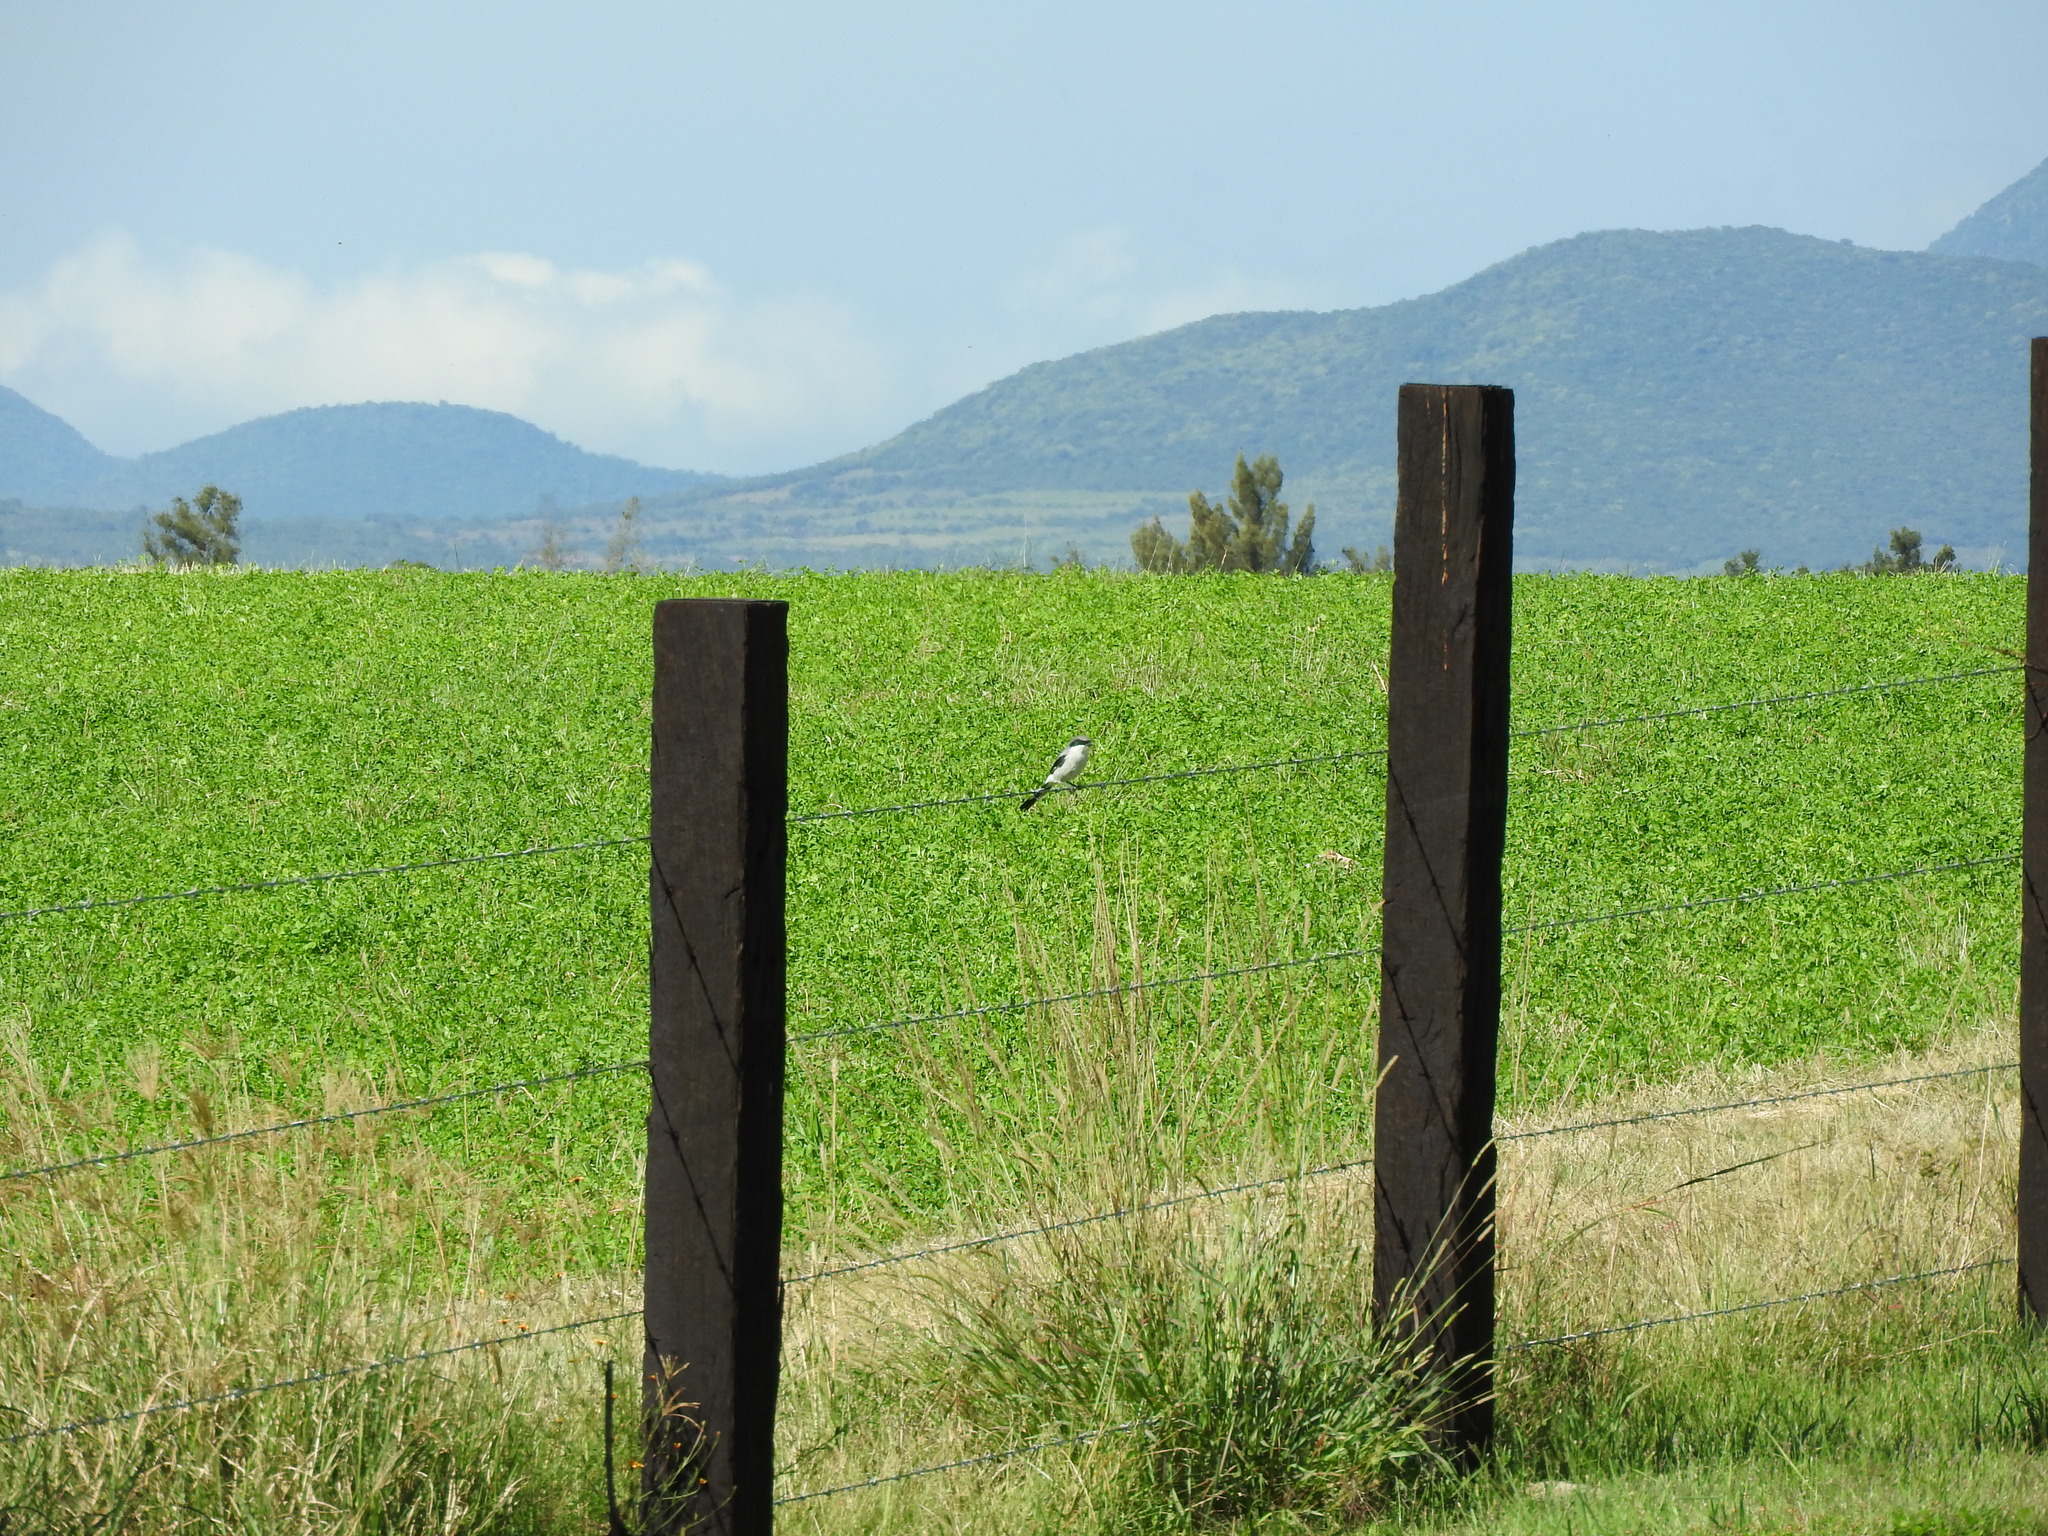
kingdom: Animalia
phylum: Chordata
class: Aves
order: Passeriformes
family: Laniidae
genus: Lanius
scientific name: Lanius ludovicianus
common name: Loggerhead shrike
